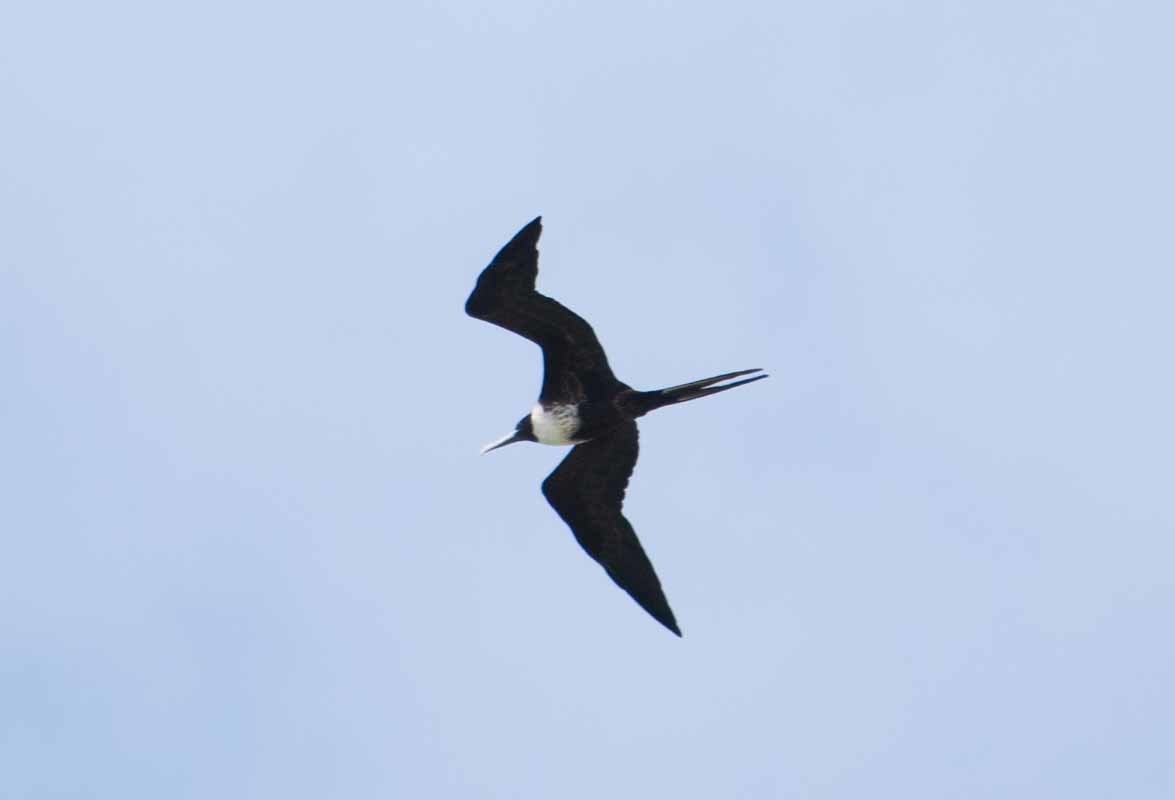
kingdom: Animalia
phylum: Chordata
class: Aves
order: Suliformes
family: Fregatidae
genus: Fregata
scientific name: Fregata magnificens
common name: Magnificent frigatebird
